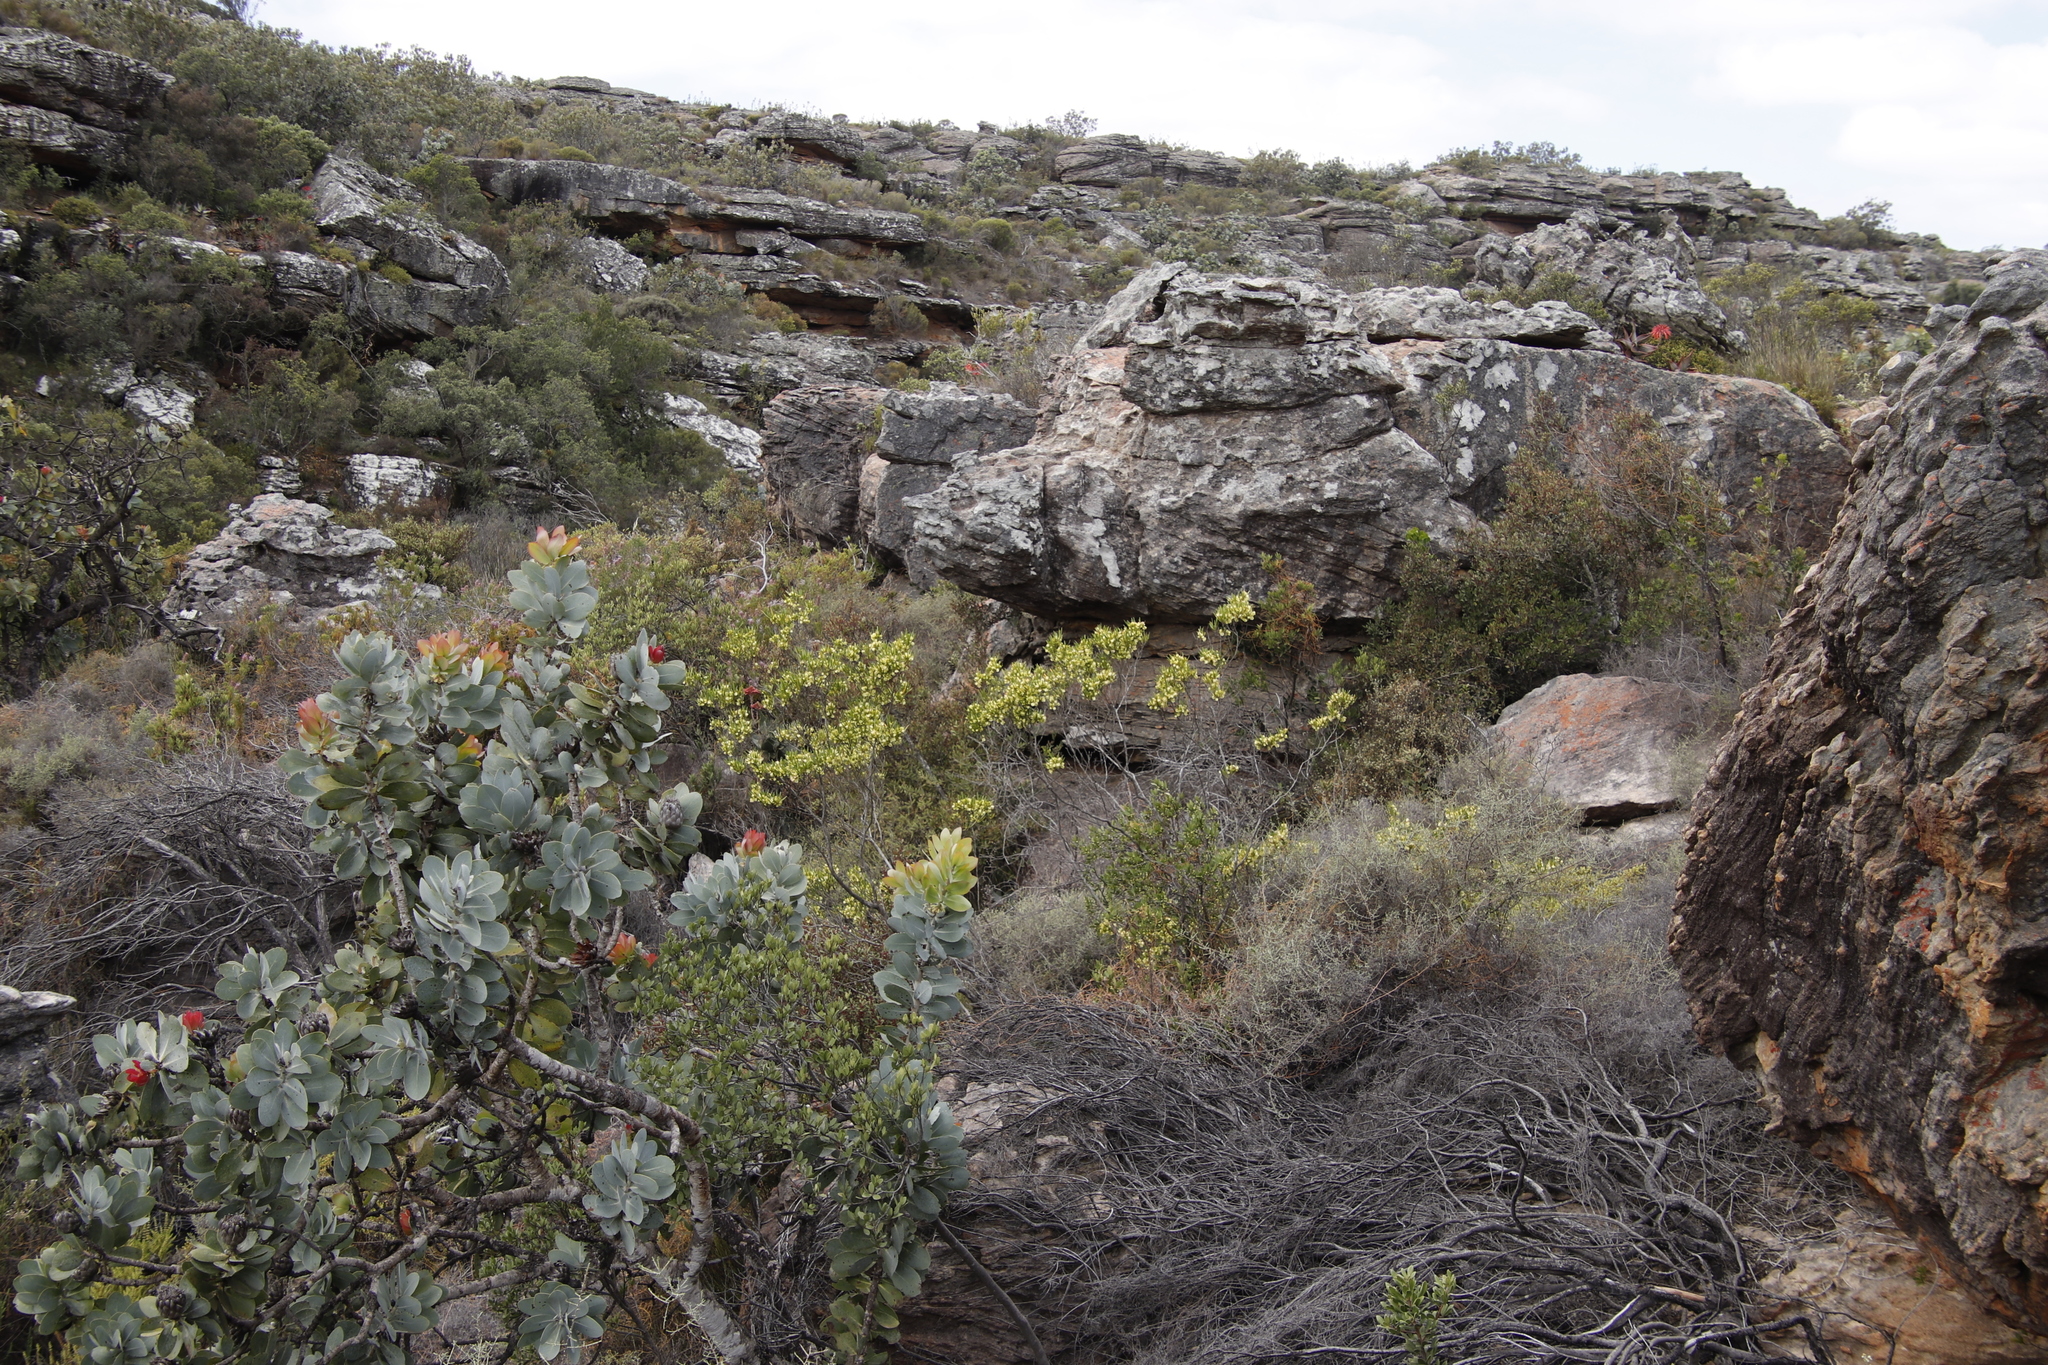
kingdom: Plantae
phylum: Tracheophyta
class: Magnoliopsida
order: Sapindales
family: Sapindaceae
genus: Dodonaea
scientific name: Dodonaea viscosa
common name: Hopbush
